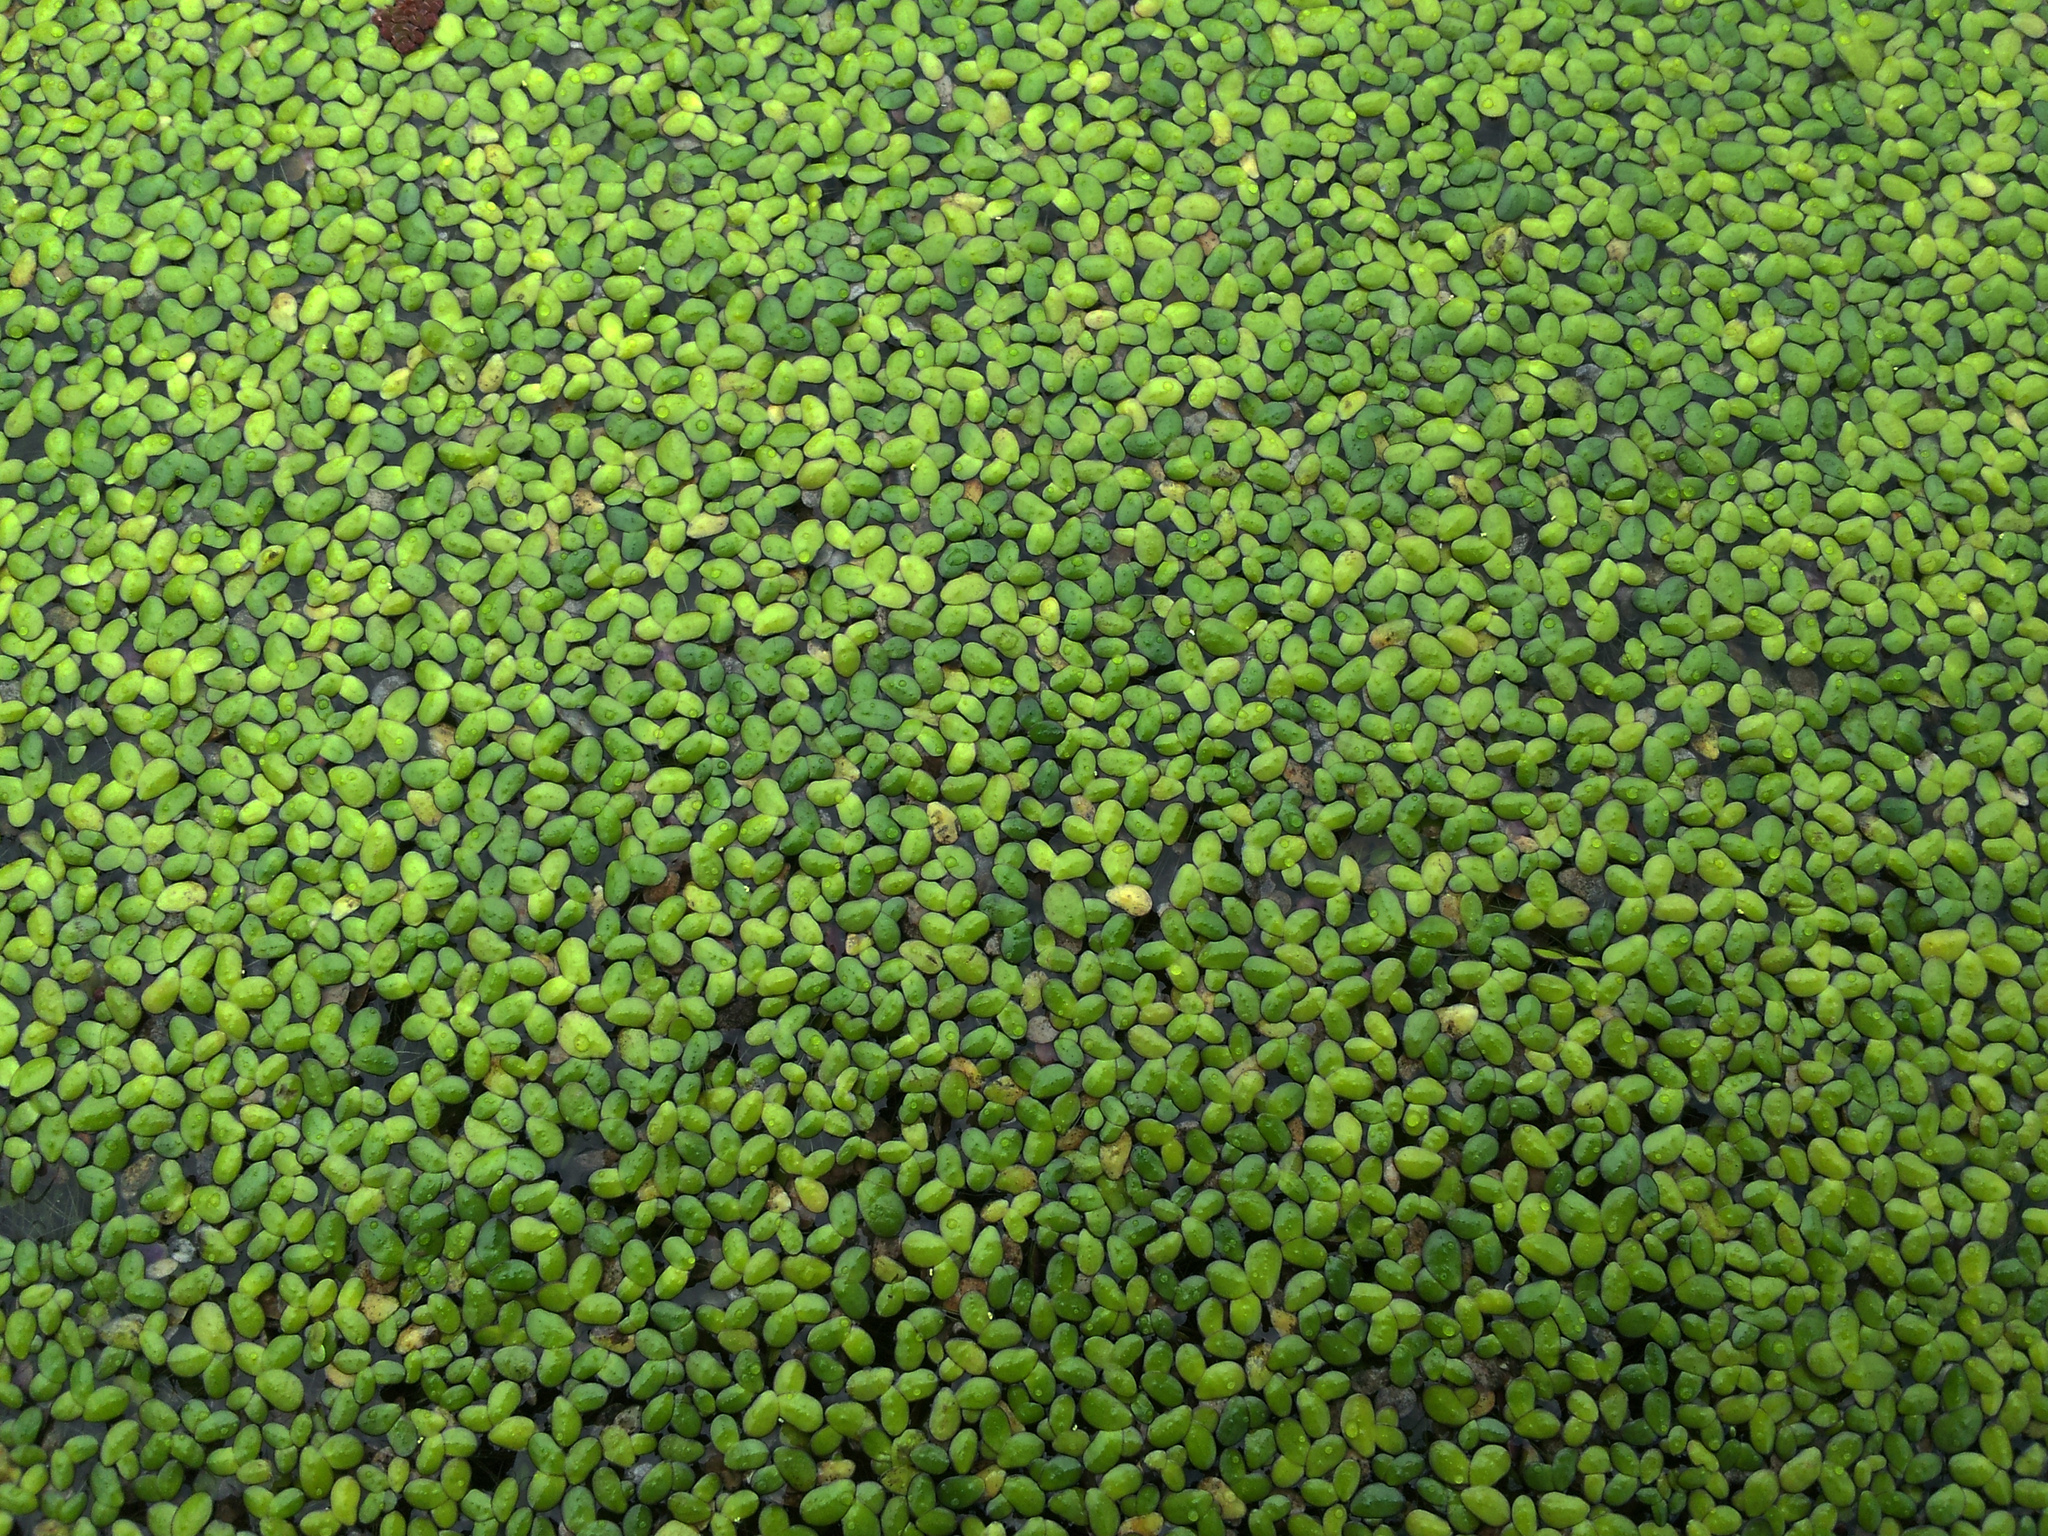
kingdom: Plantae
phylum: Tracheophyta
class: Liliopsida
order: Alismatales
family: Araceae
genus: Spirodela
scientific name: Spirodela punctata
